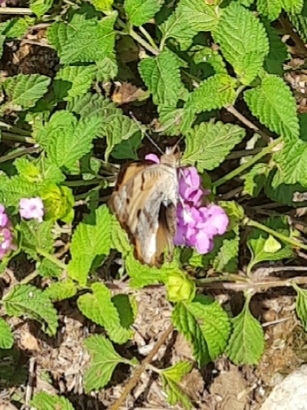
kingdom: Animalia
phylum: Arthropoda
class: Insecta
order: Lepidoptera
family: Nymphalidae
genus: Junonia
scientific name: Junonia hierta
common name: Yellow pansy
